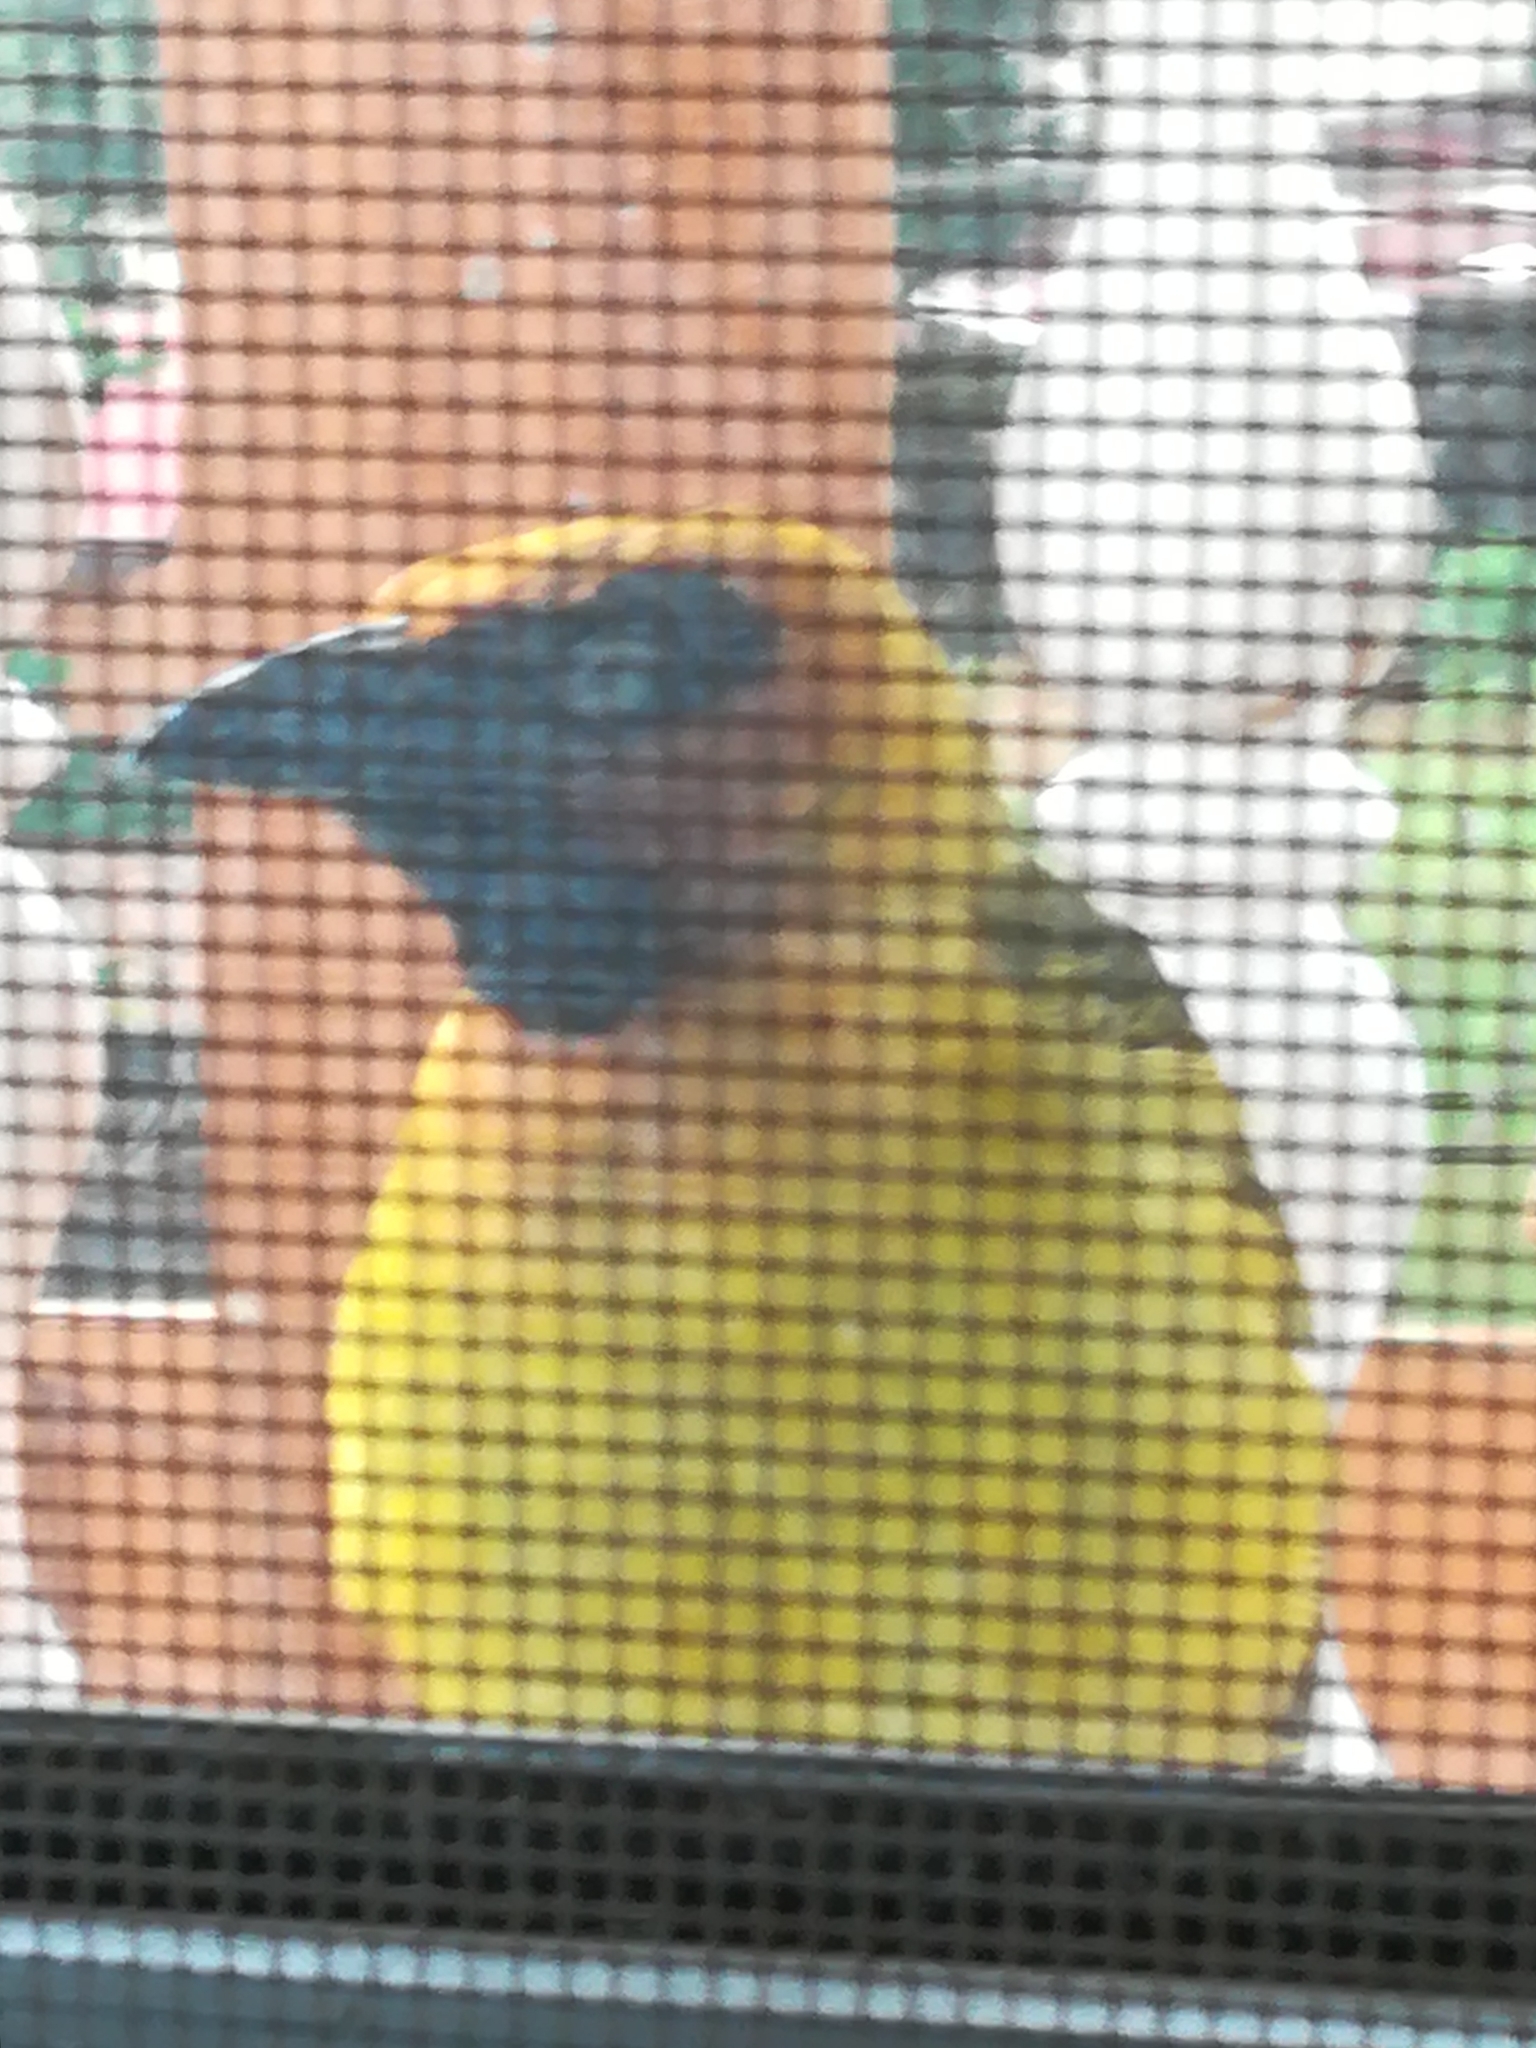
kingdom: Animalia
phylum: Chordata
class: Aves
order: Passeriformes
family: Ploceidae
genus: Ploceus
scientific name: Ploceus brachypterus
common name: Olive-naped weaver
